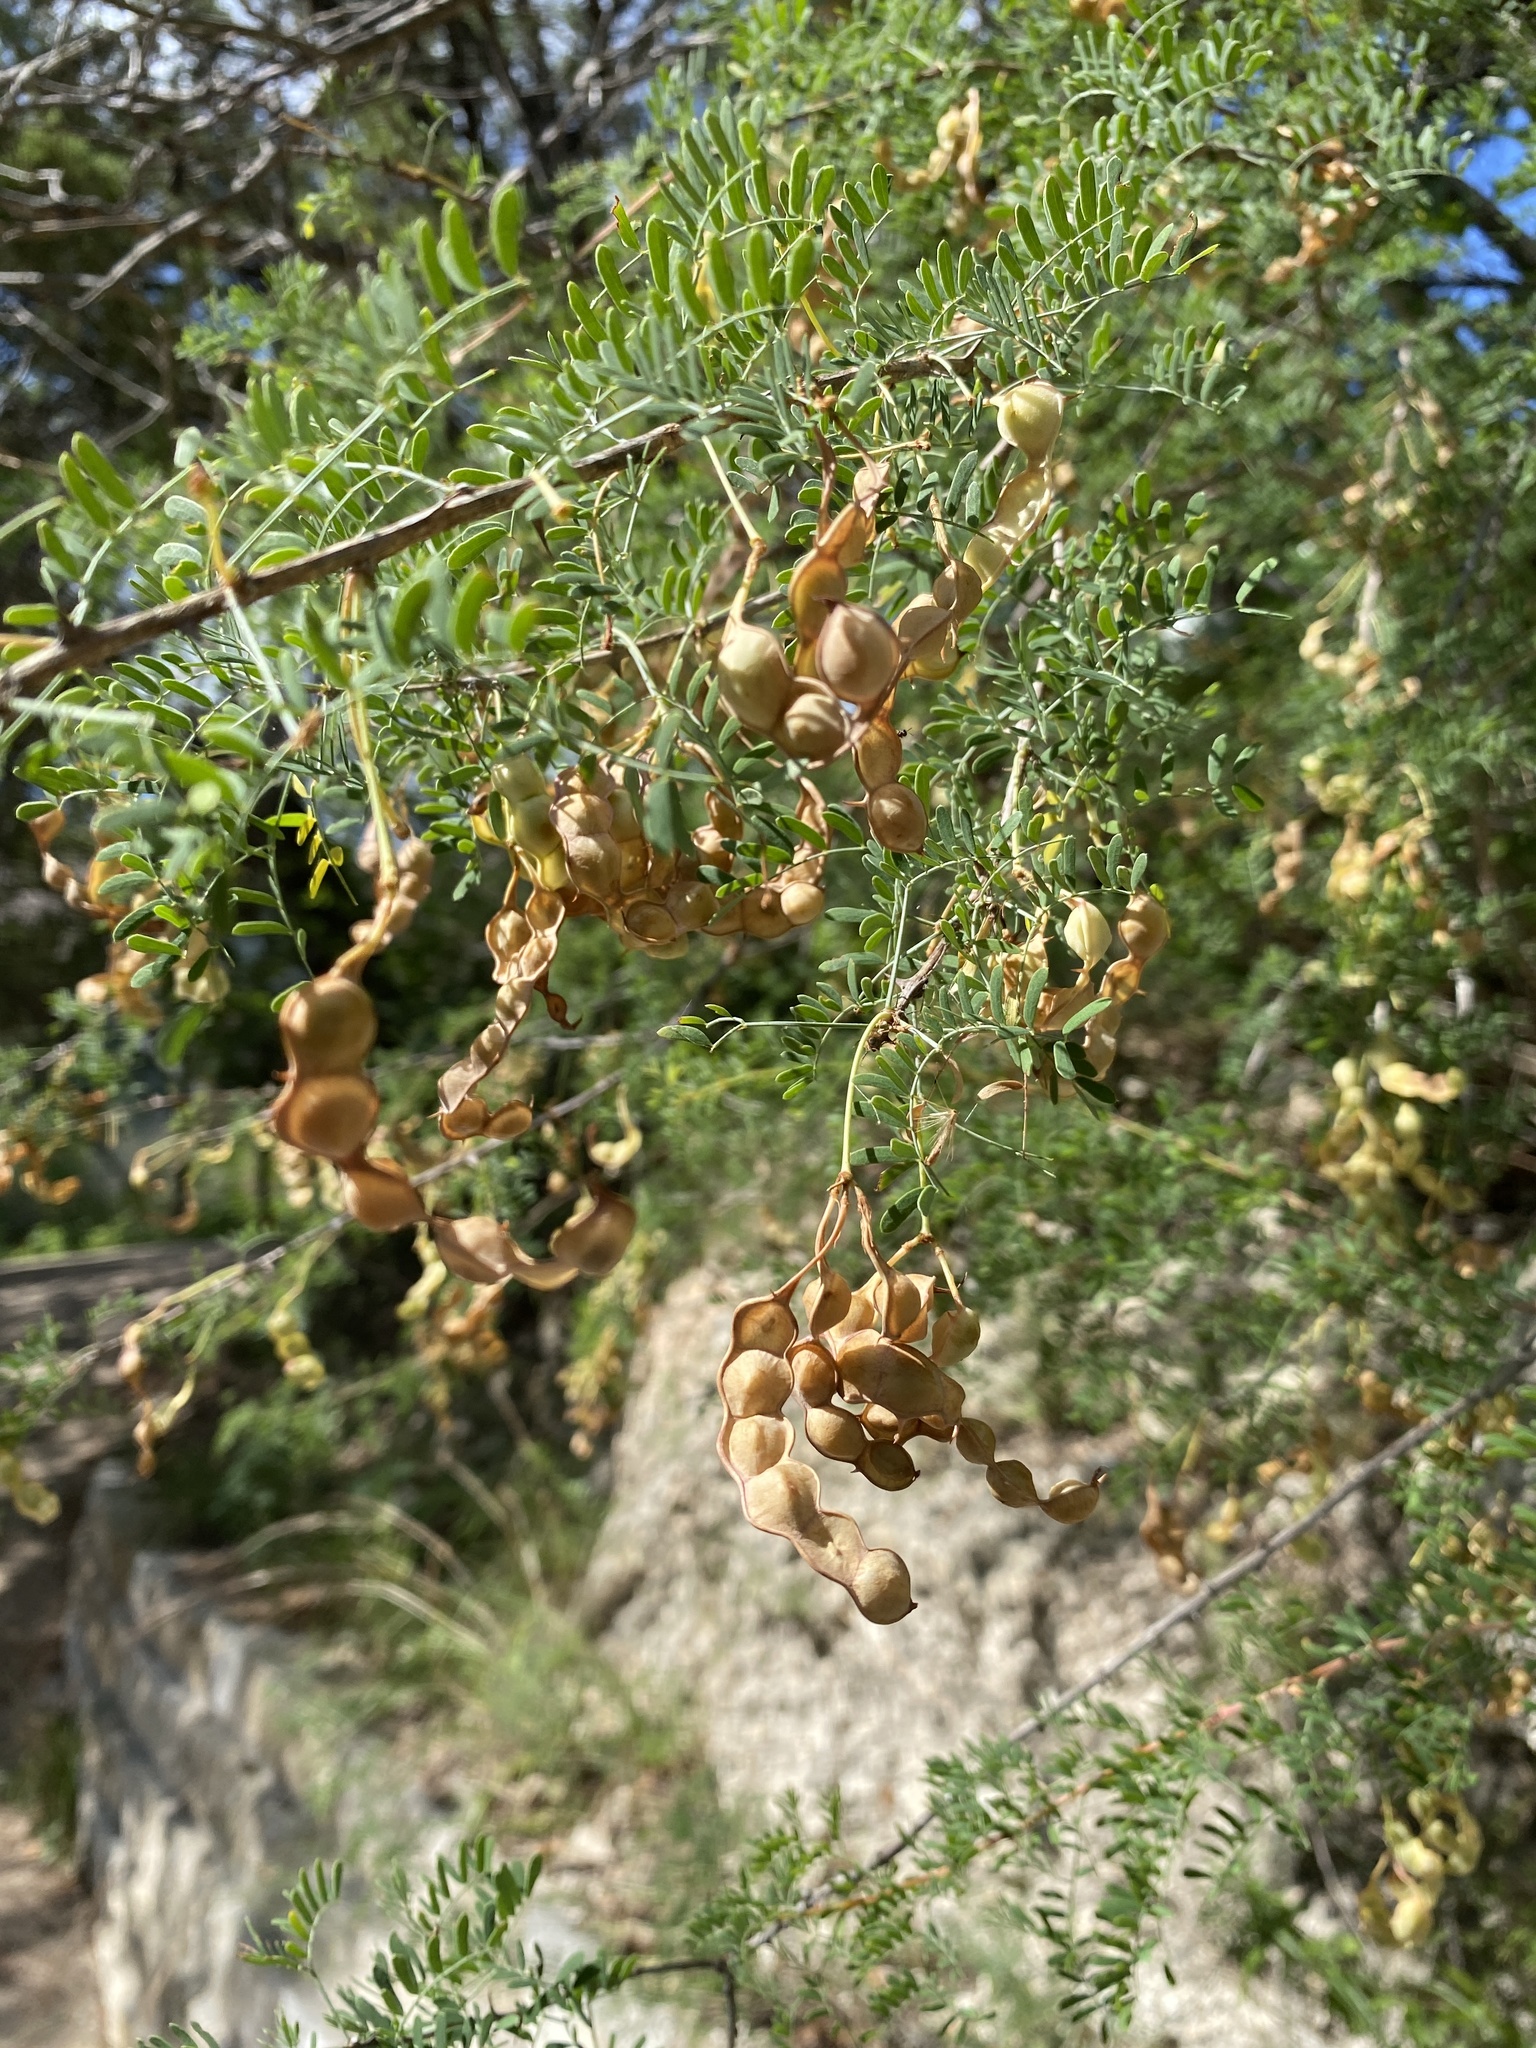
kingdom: Plantae
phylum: Tracheophyta
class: Magnoliopsida
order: Fabales
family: Fabaceae
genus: Mimosa
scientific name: Mimosa borealis
